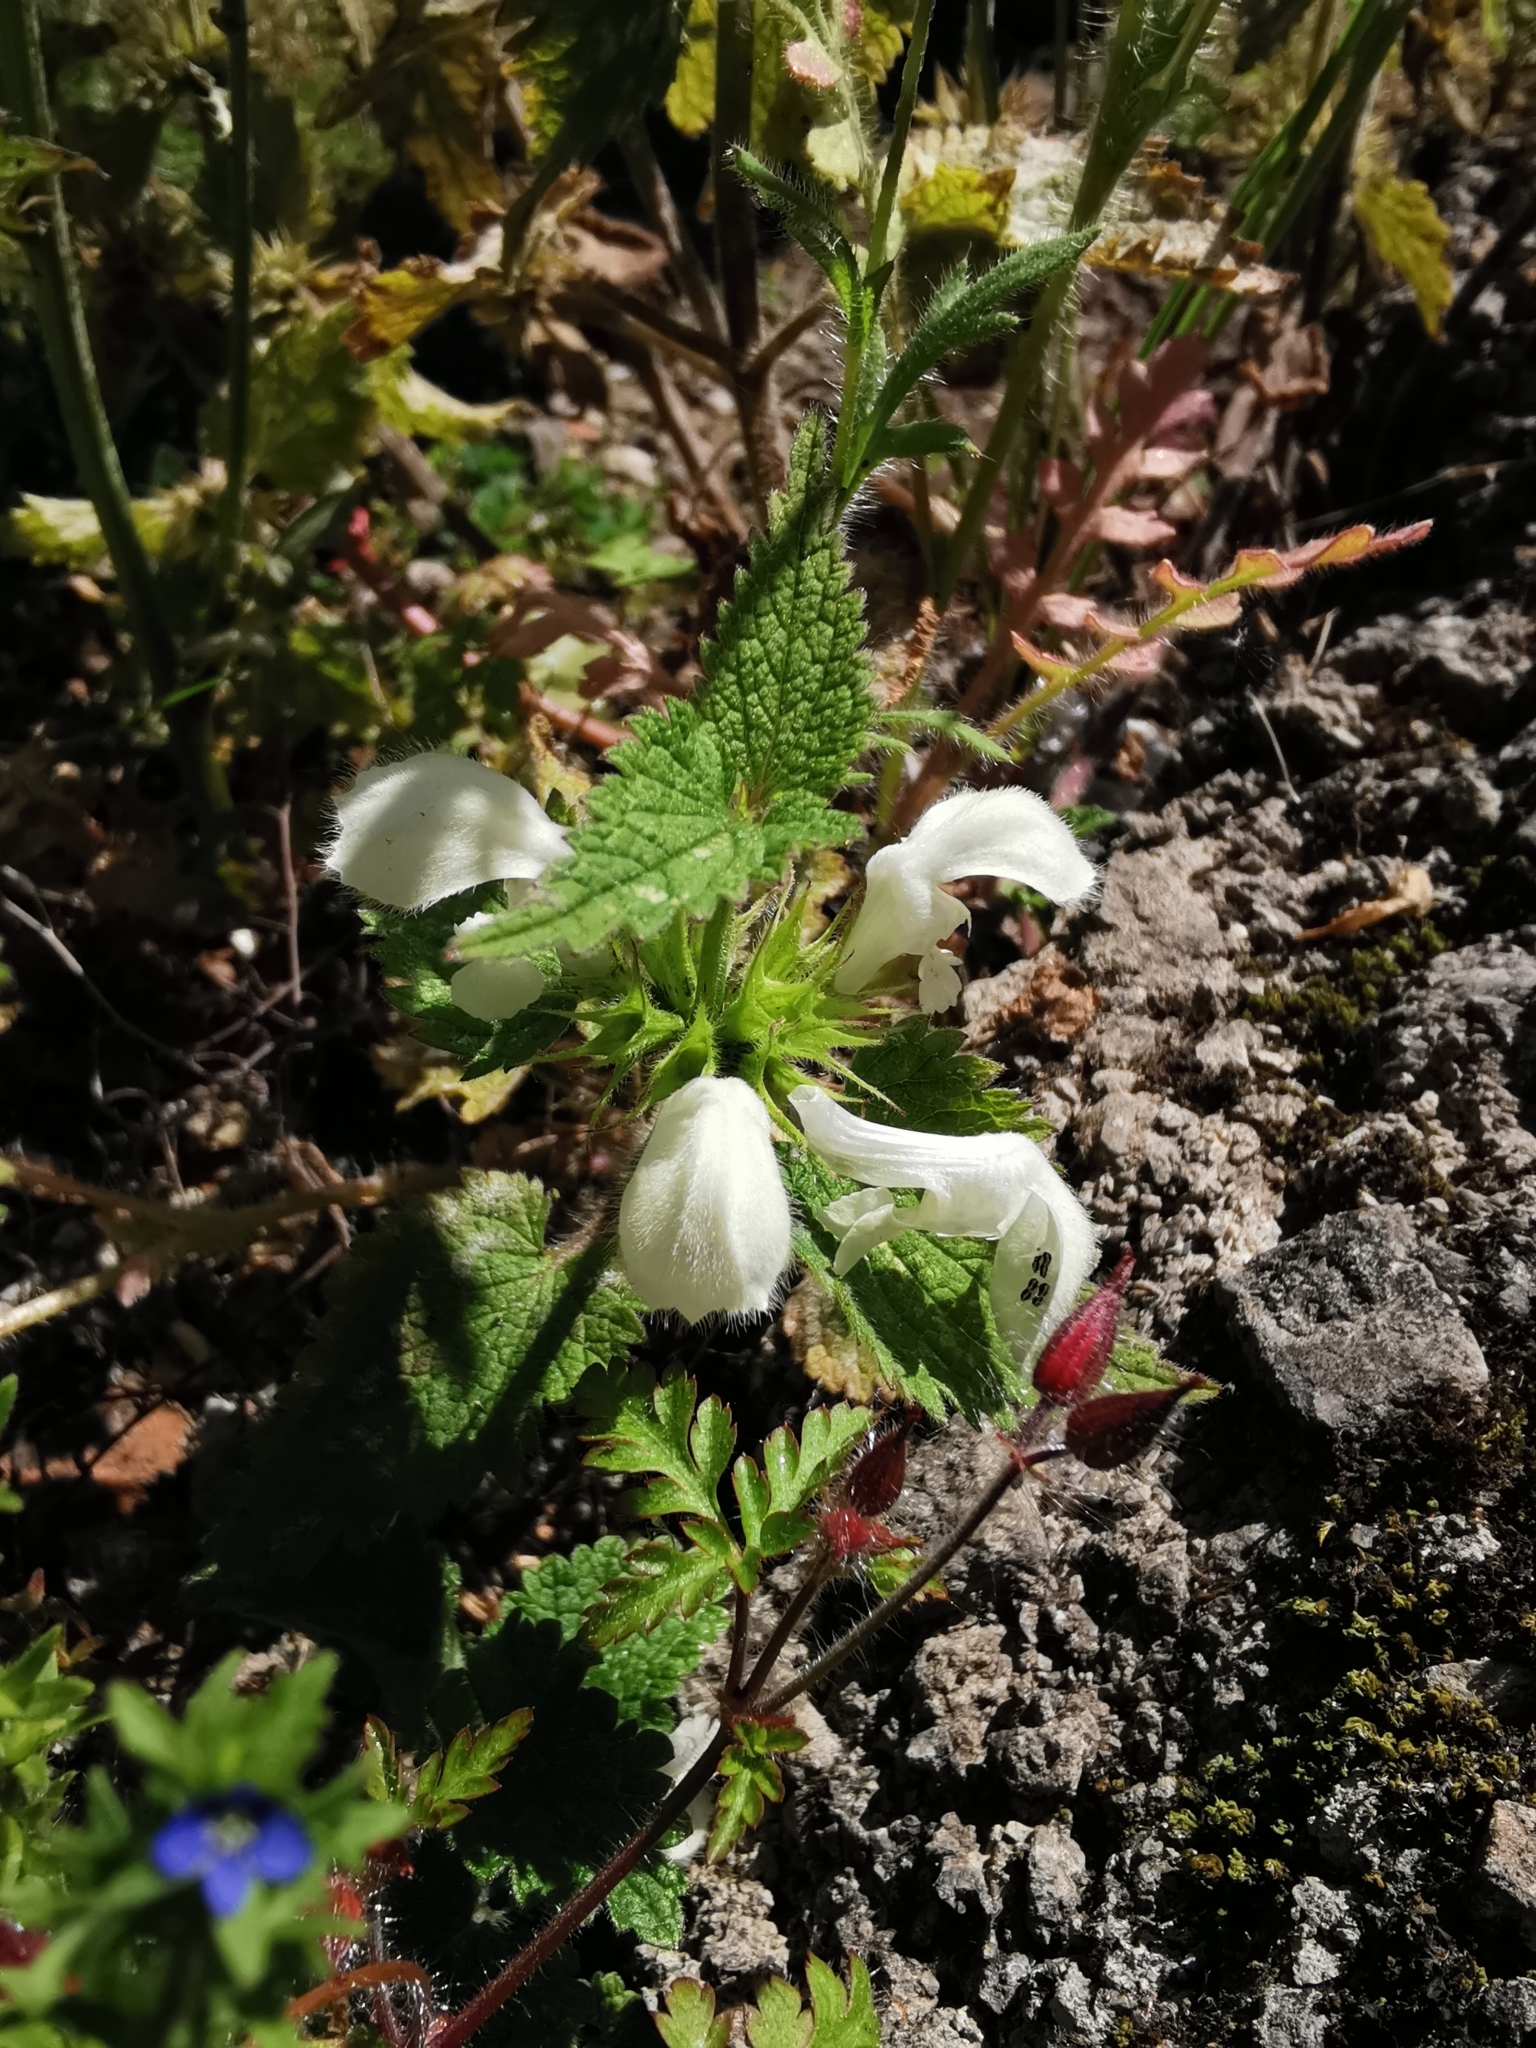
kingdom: Plantae
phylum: Tracheophyta
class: Magnoliopsida
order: Lamiales
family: Lamiaceae
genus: Lamium
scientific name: Lamium album
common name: White dead-nettle
